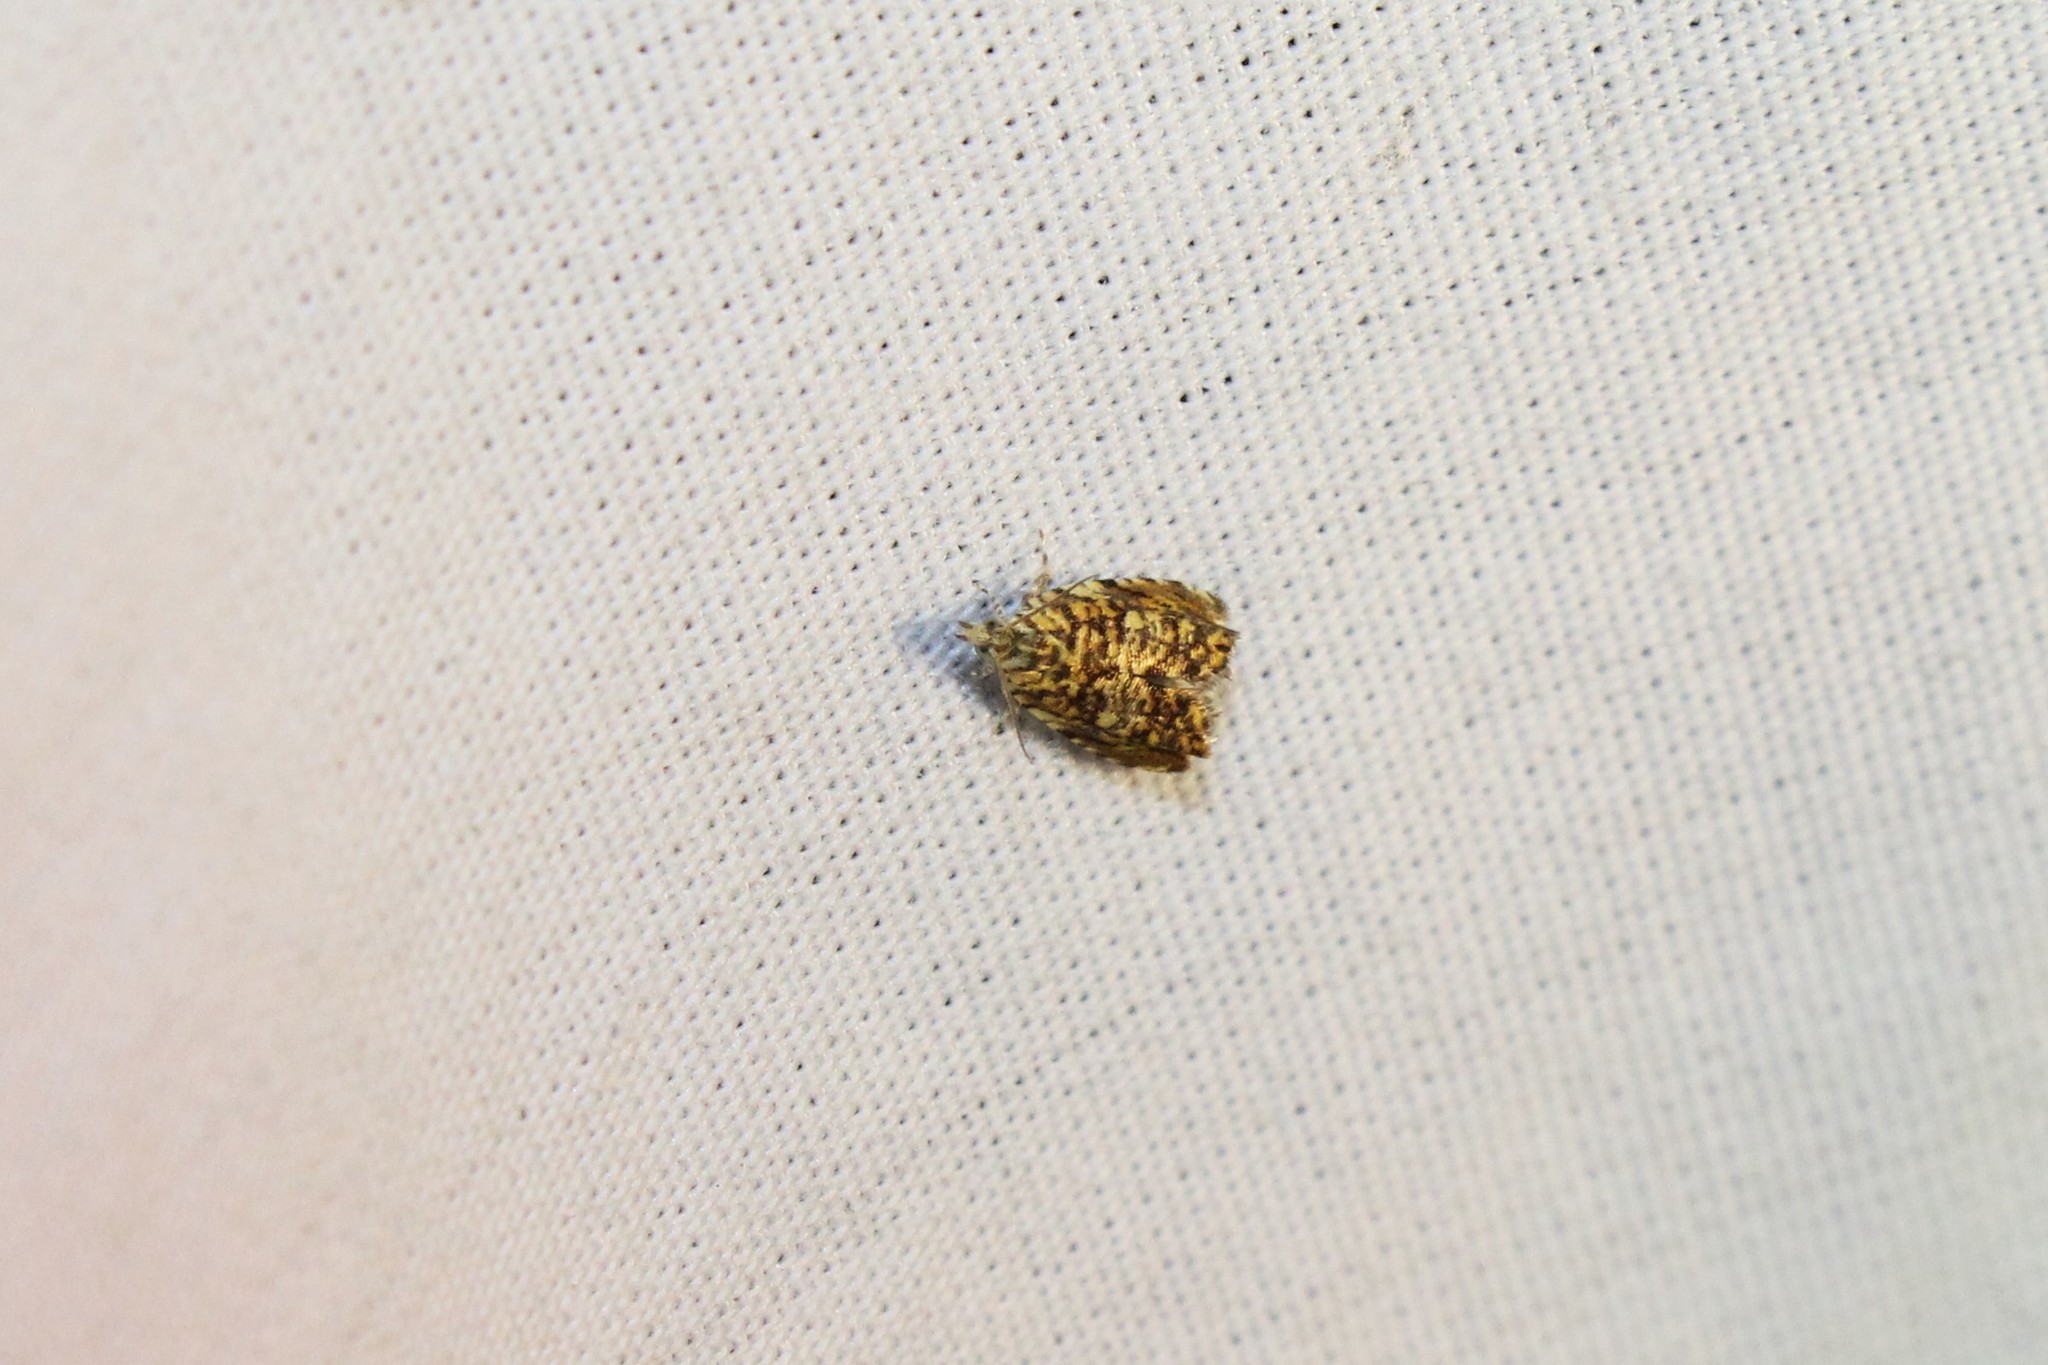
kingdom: Animalia
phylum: Arthropoda
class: Insecta
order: Lepidoptera
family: Tortricidae
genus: Dichrorampha
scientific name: Dichrorampha leopardana
